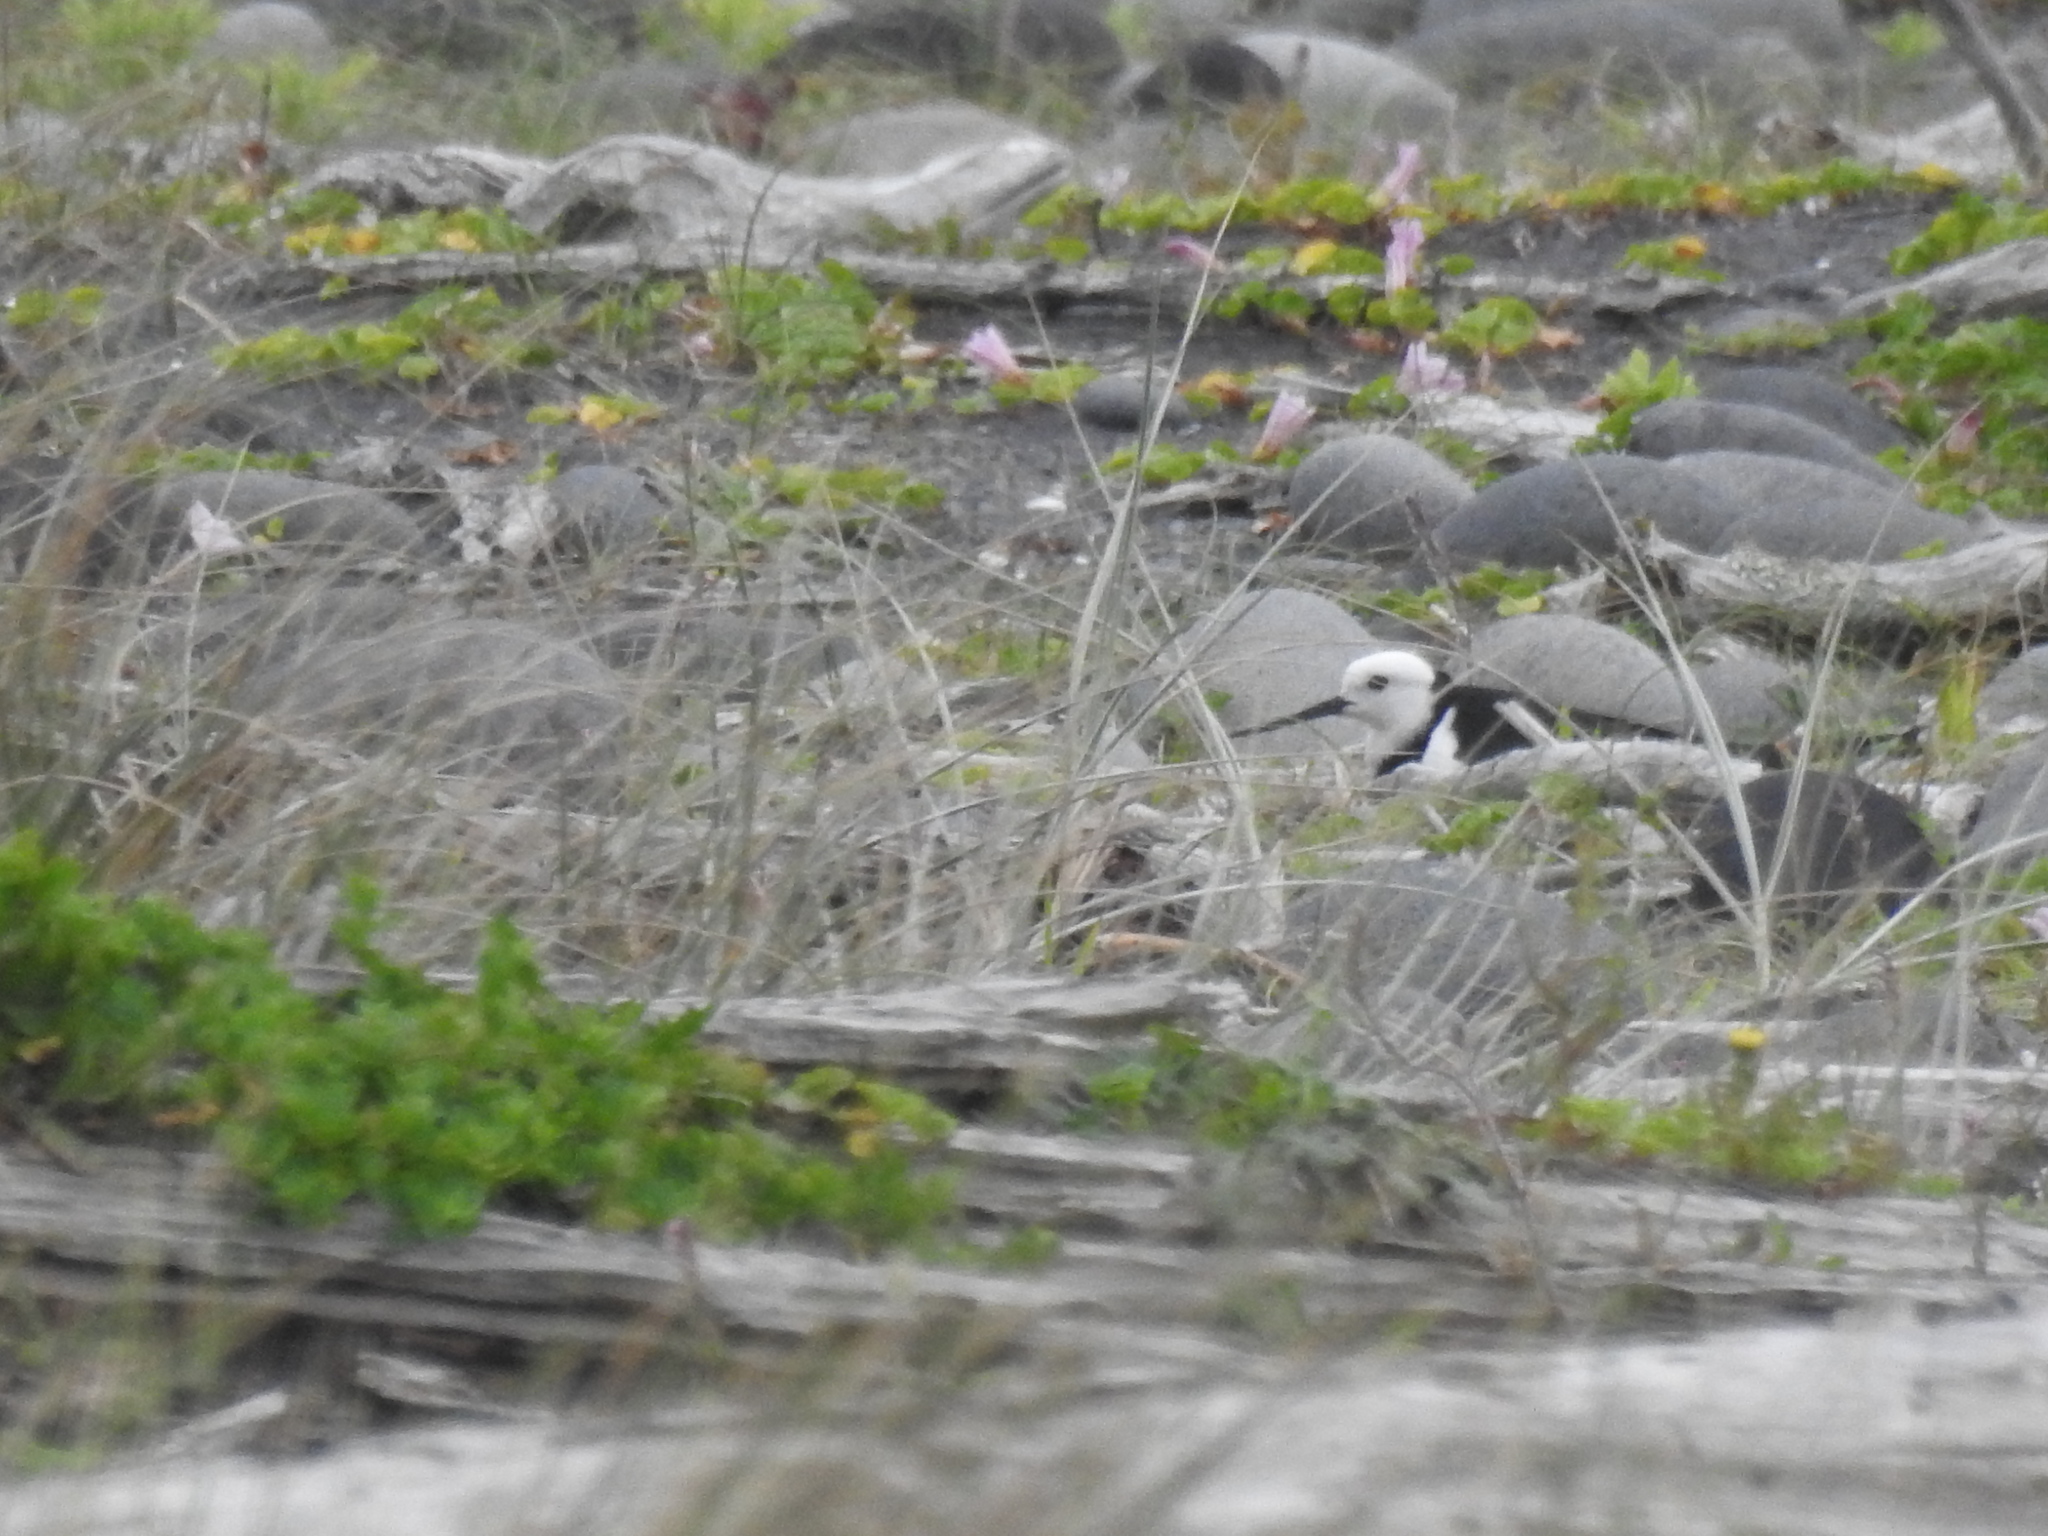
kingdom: Animalia
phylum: Chordata
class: Aves
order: Charadriiformes
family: Recurvirostridae
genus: Himantopus
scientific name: Himantopus leucocephalus
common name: White-headed stilt
